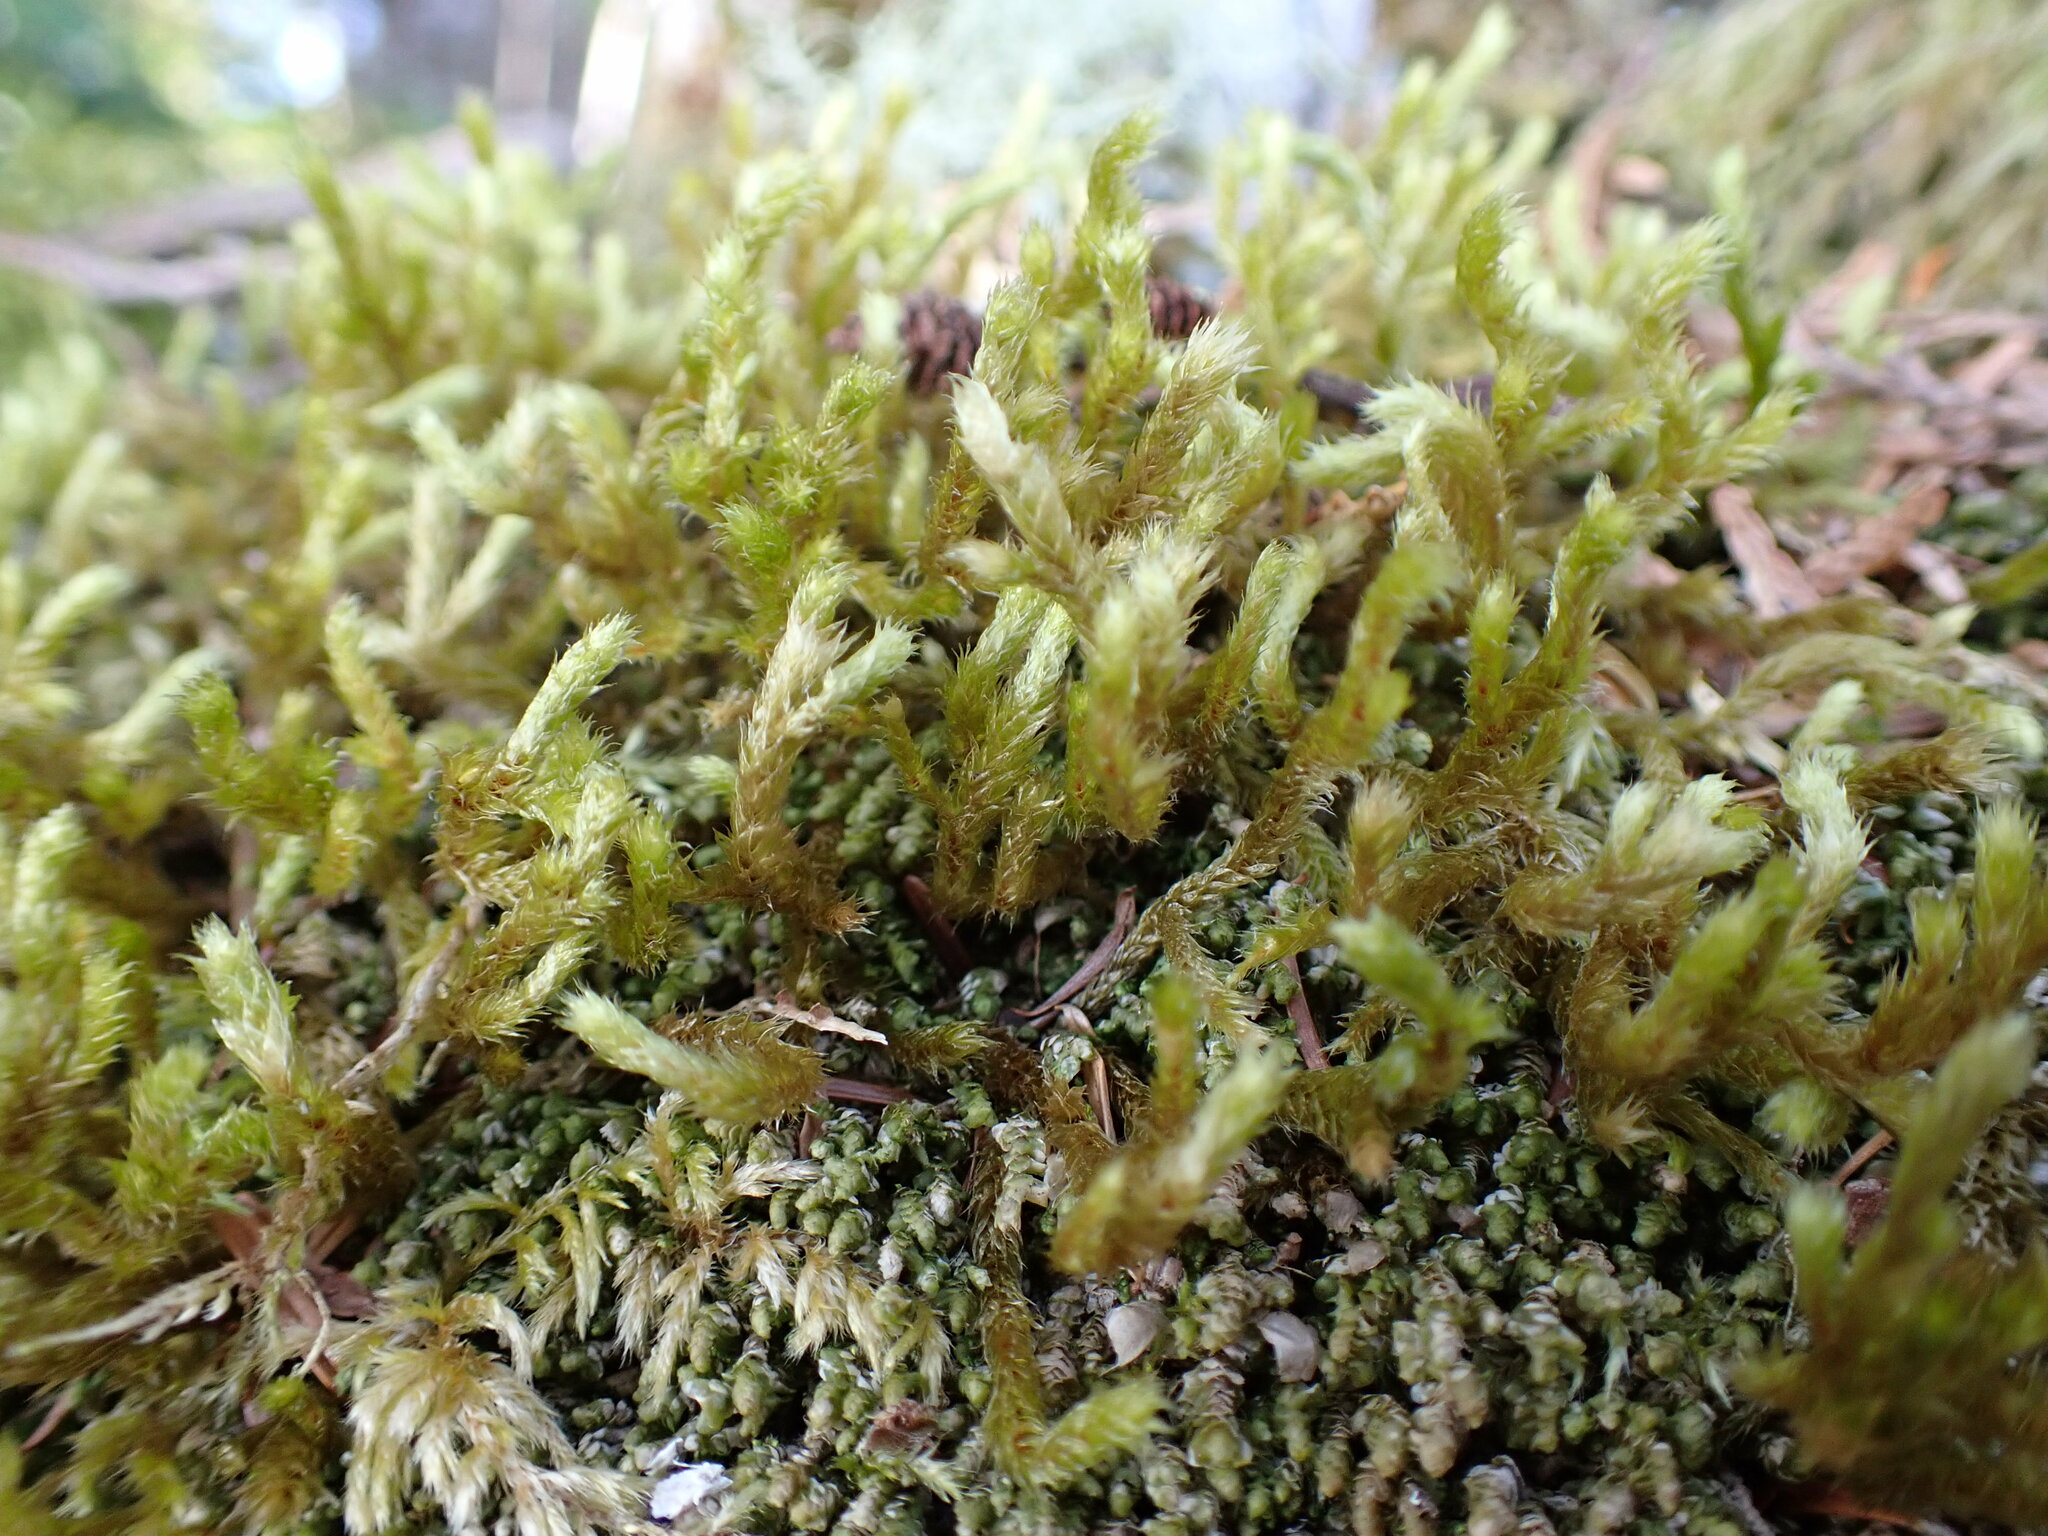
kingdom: Plantae
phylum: Bryophyta
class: Bryopsida
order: Hypnales
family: Antitrichiaceae
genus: Antitrichia
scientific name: Antitrichia curtipendula
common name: Pendulous wing-moss
